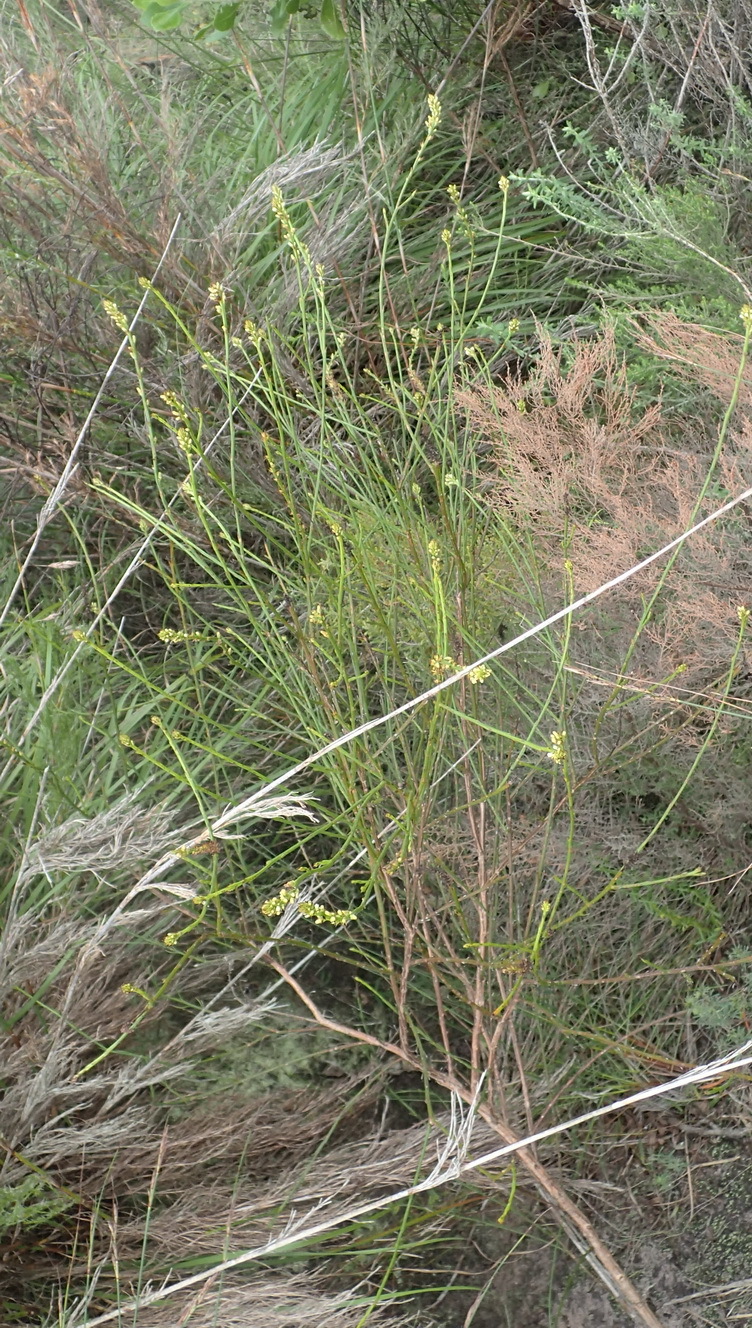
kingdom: Plantae
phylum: Tracheophyta
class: Magnoliopsida
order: Santalales
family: Thesiaceae
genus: Thesium
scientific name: Thesium spicatum
